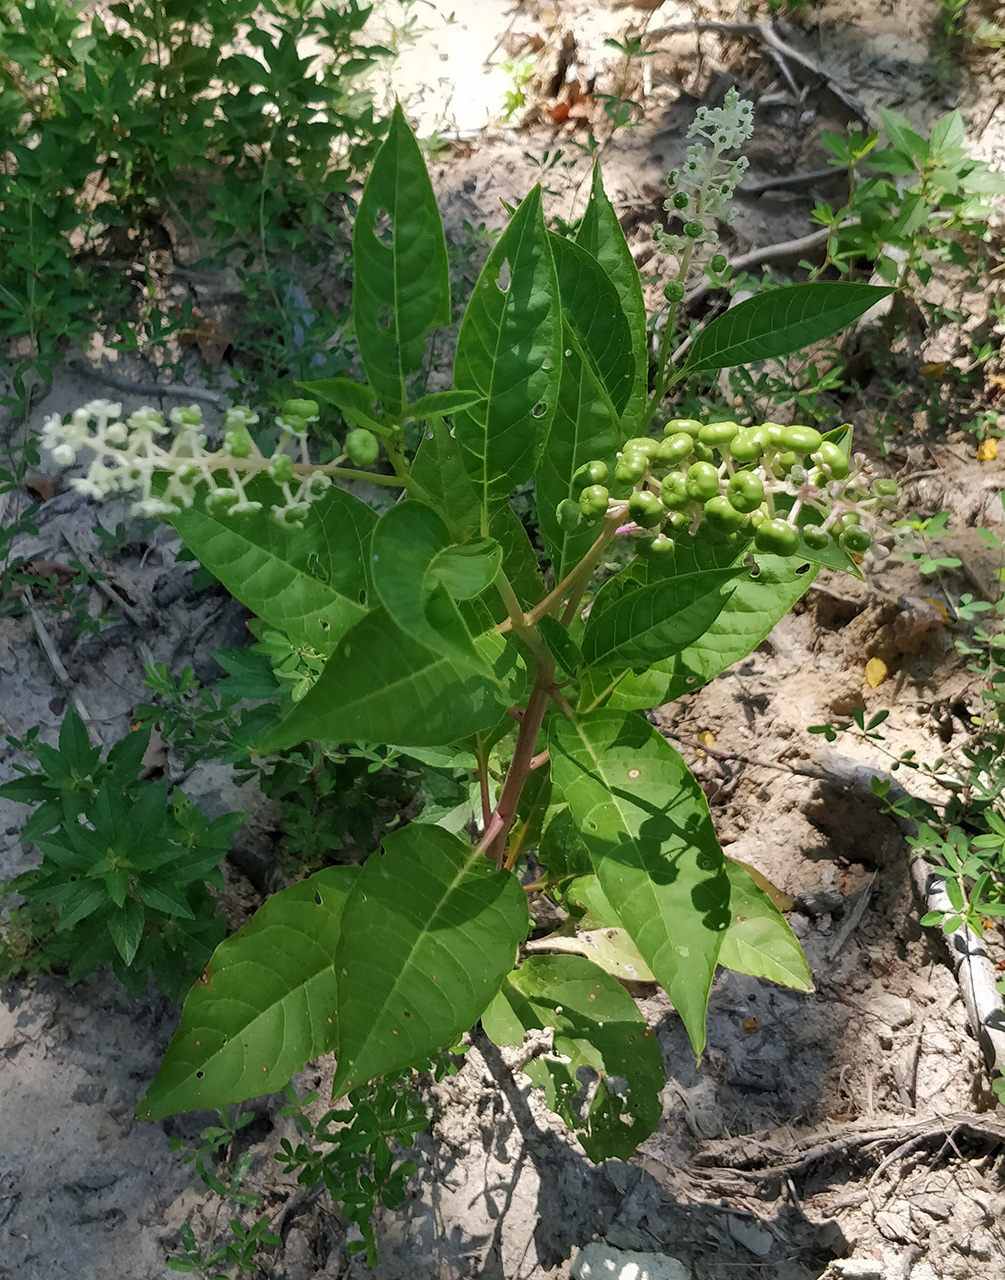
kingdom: Plantae
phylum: Tracheophyta
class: Magnoliopsida
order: Caryophyllales
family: Phytolaccaceae
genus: Phytolacca
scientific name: Phytolacca americana
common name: American pokeweed
